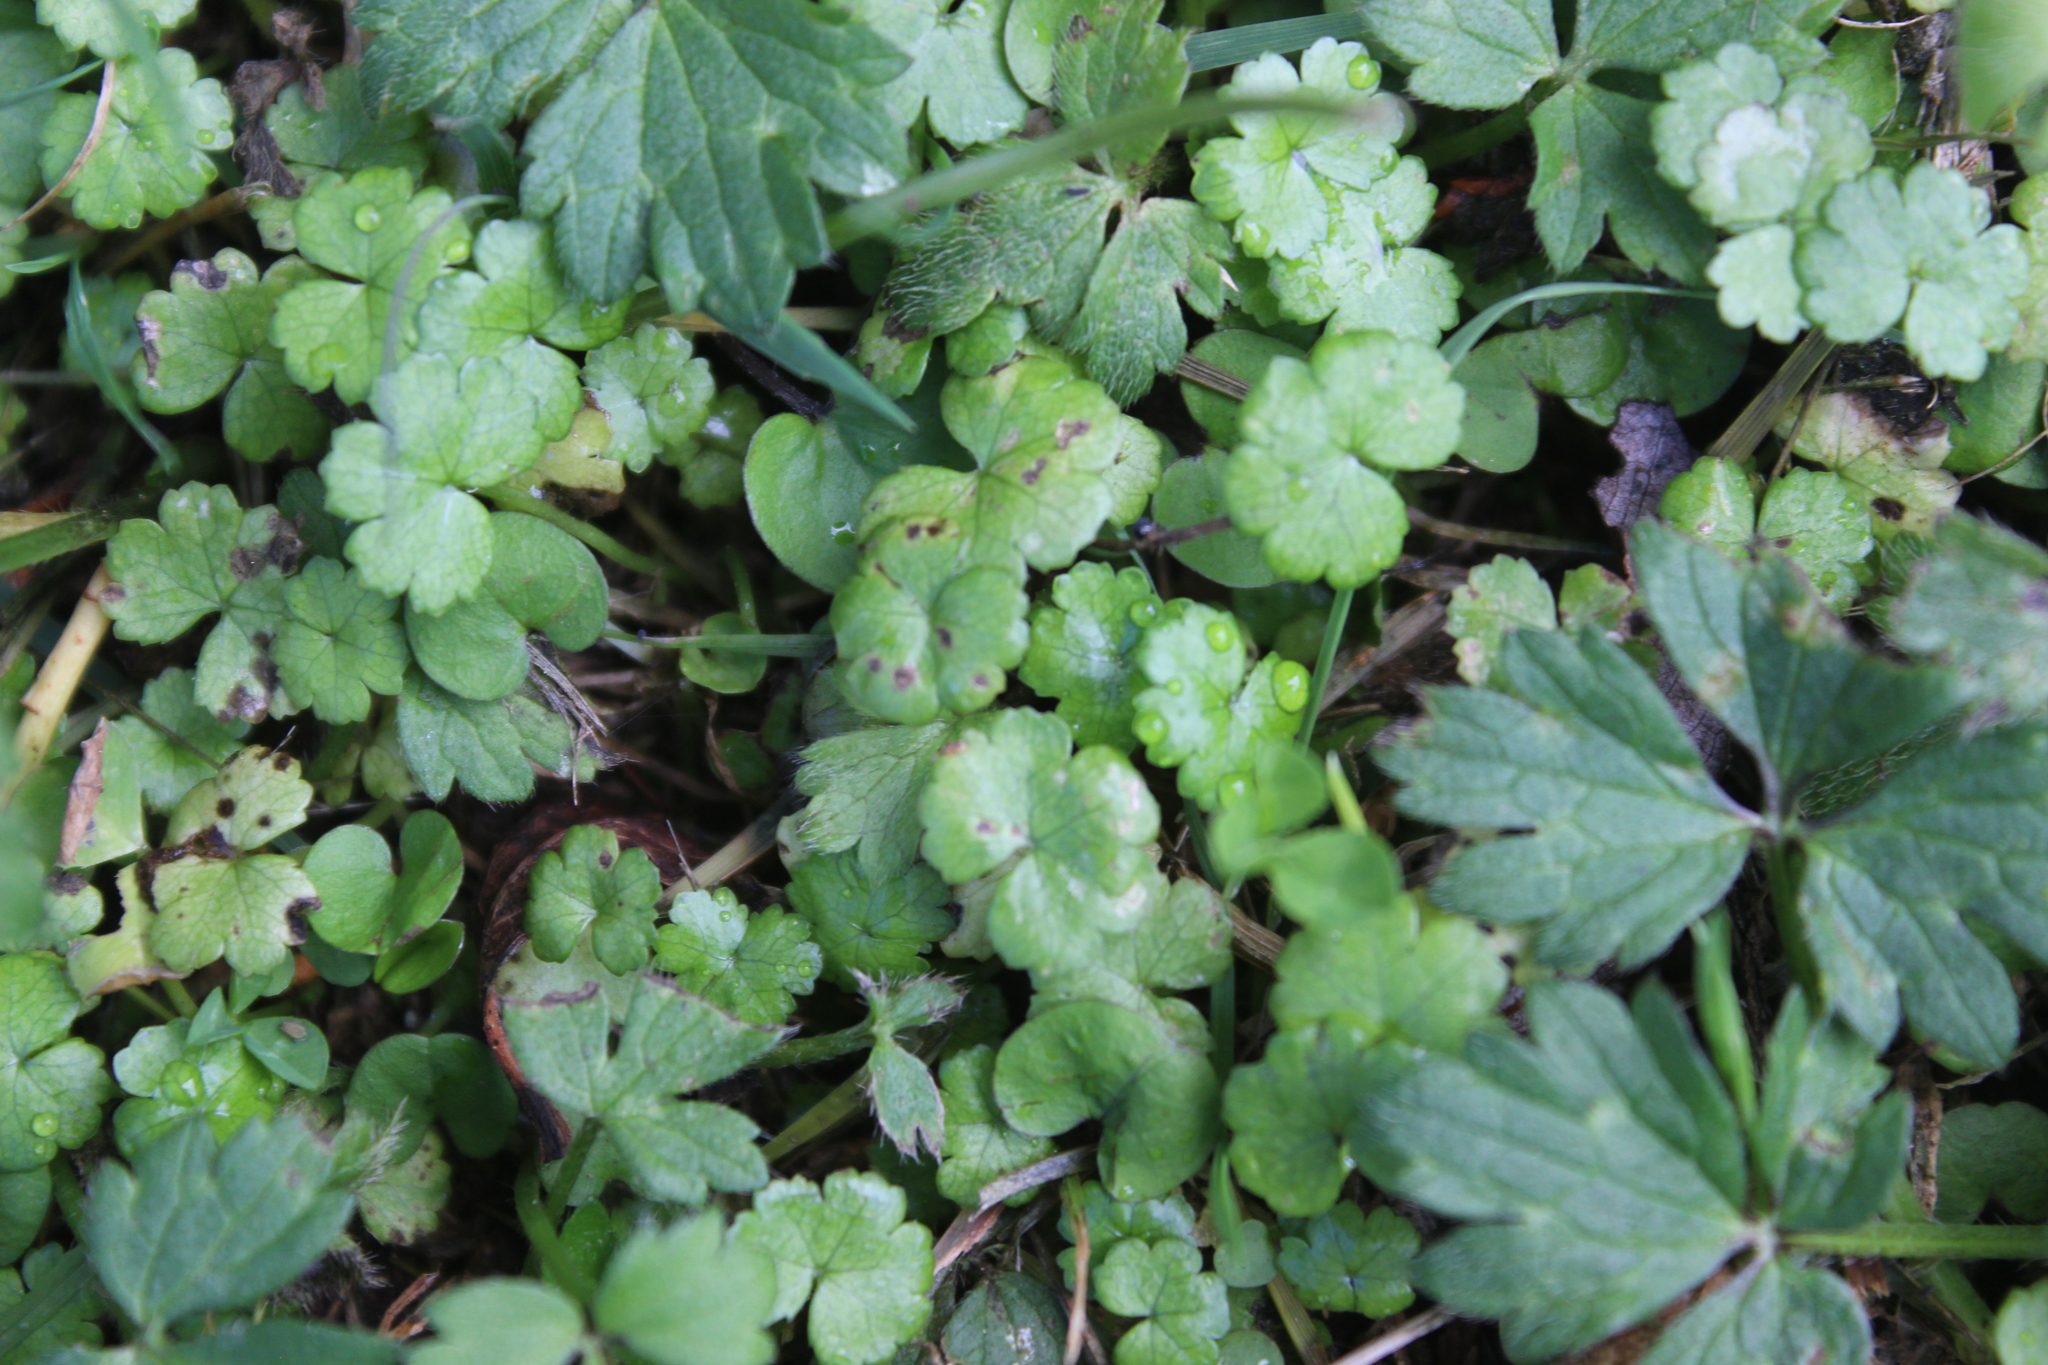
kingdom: Plantae
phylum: Tracheophyta
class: Magnoliopsida
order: Apiales
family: Araliaceae
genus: Hydrocotyle
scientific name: Hydrocotyle heteromeria
